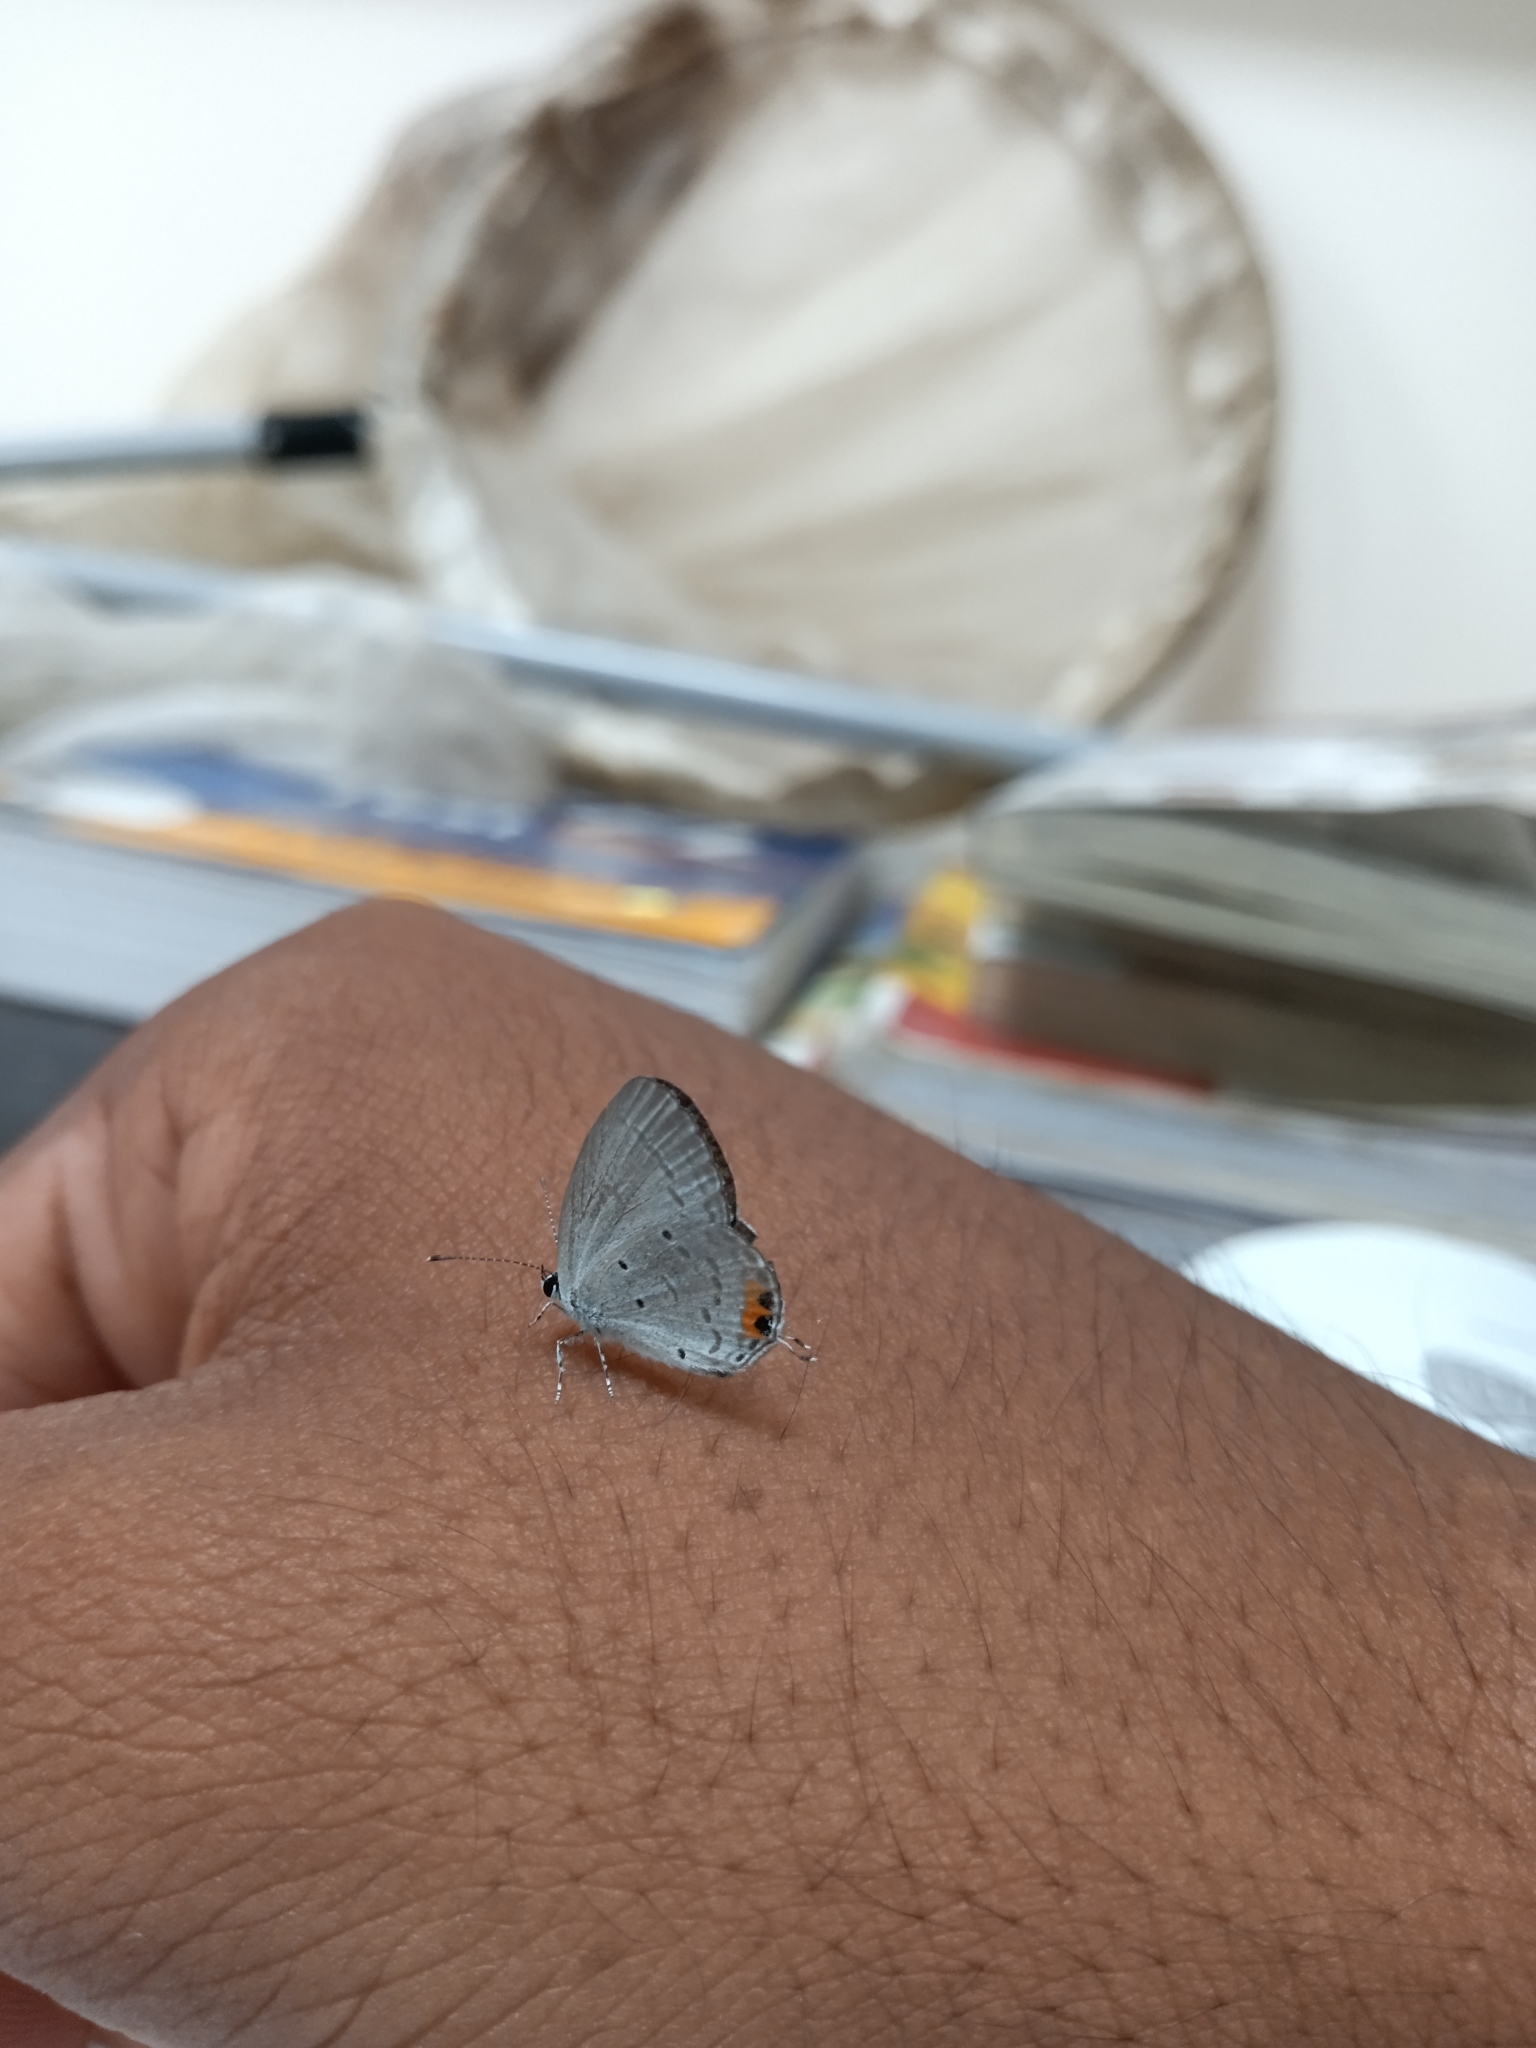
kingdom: Animalia
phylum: Arthropoda
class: Insecta
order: Lepidoptera
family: Lycaenidae
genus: Everes
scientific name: Everes lacturnus
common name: Orange-tipped pea-blue
